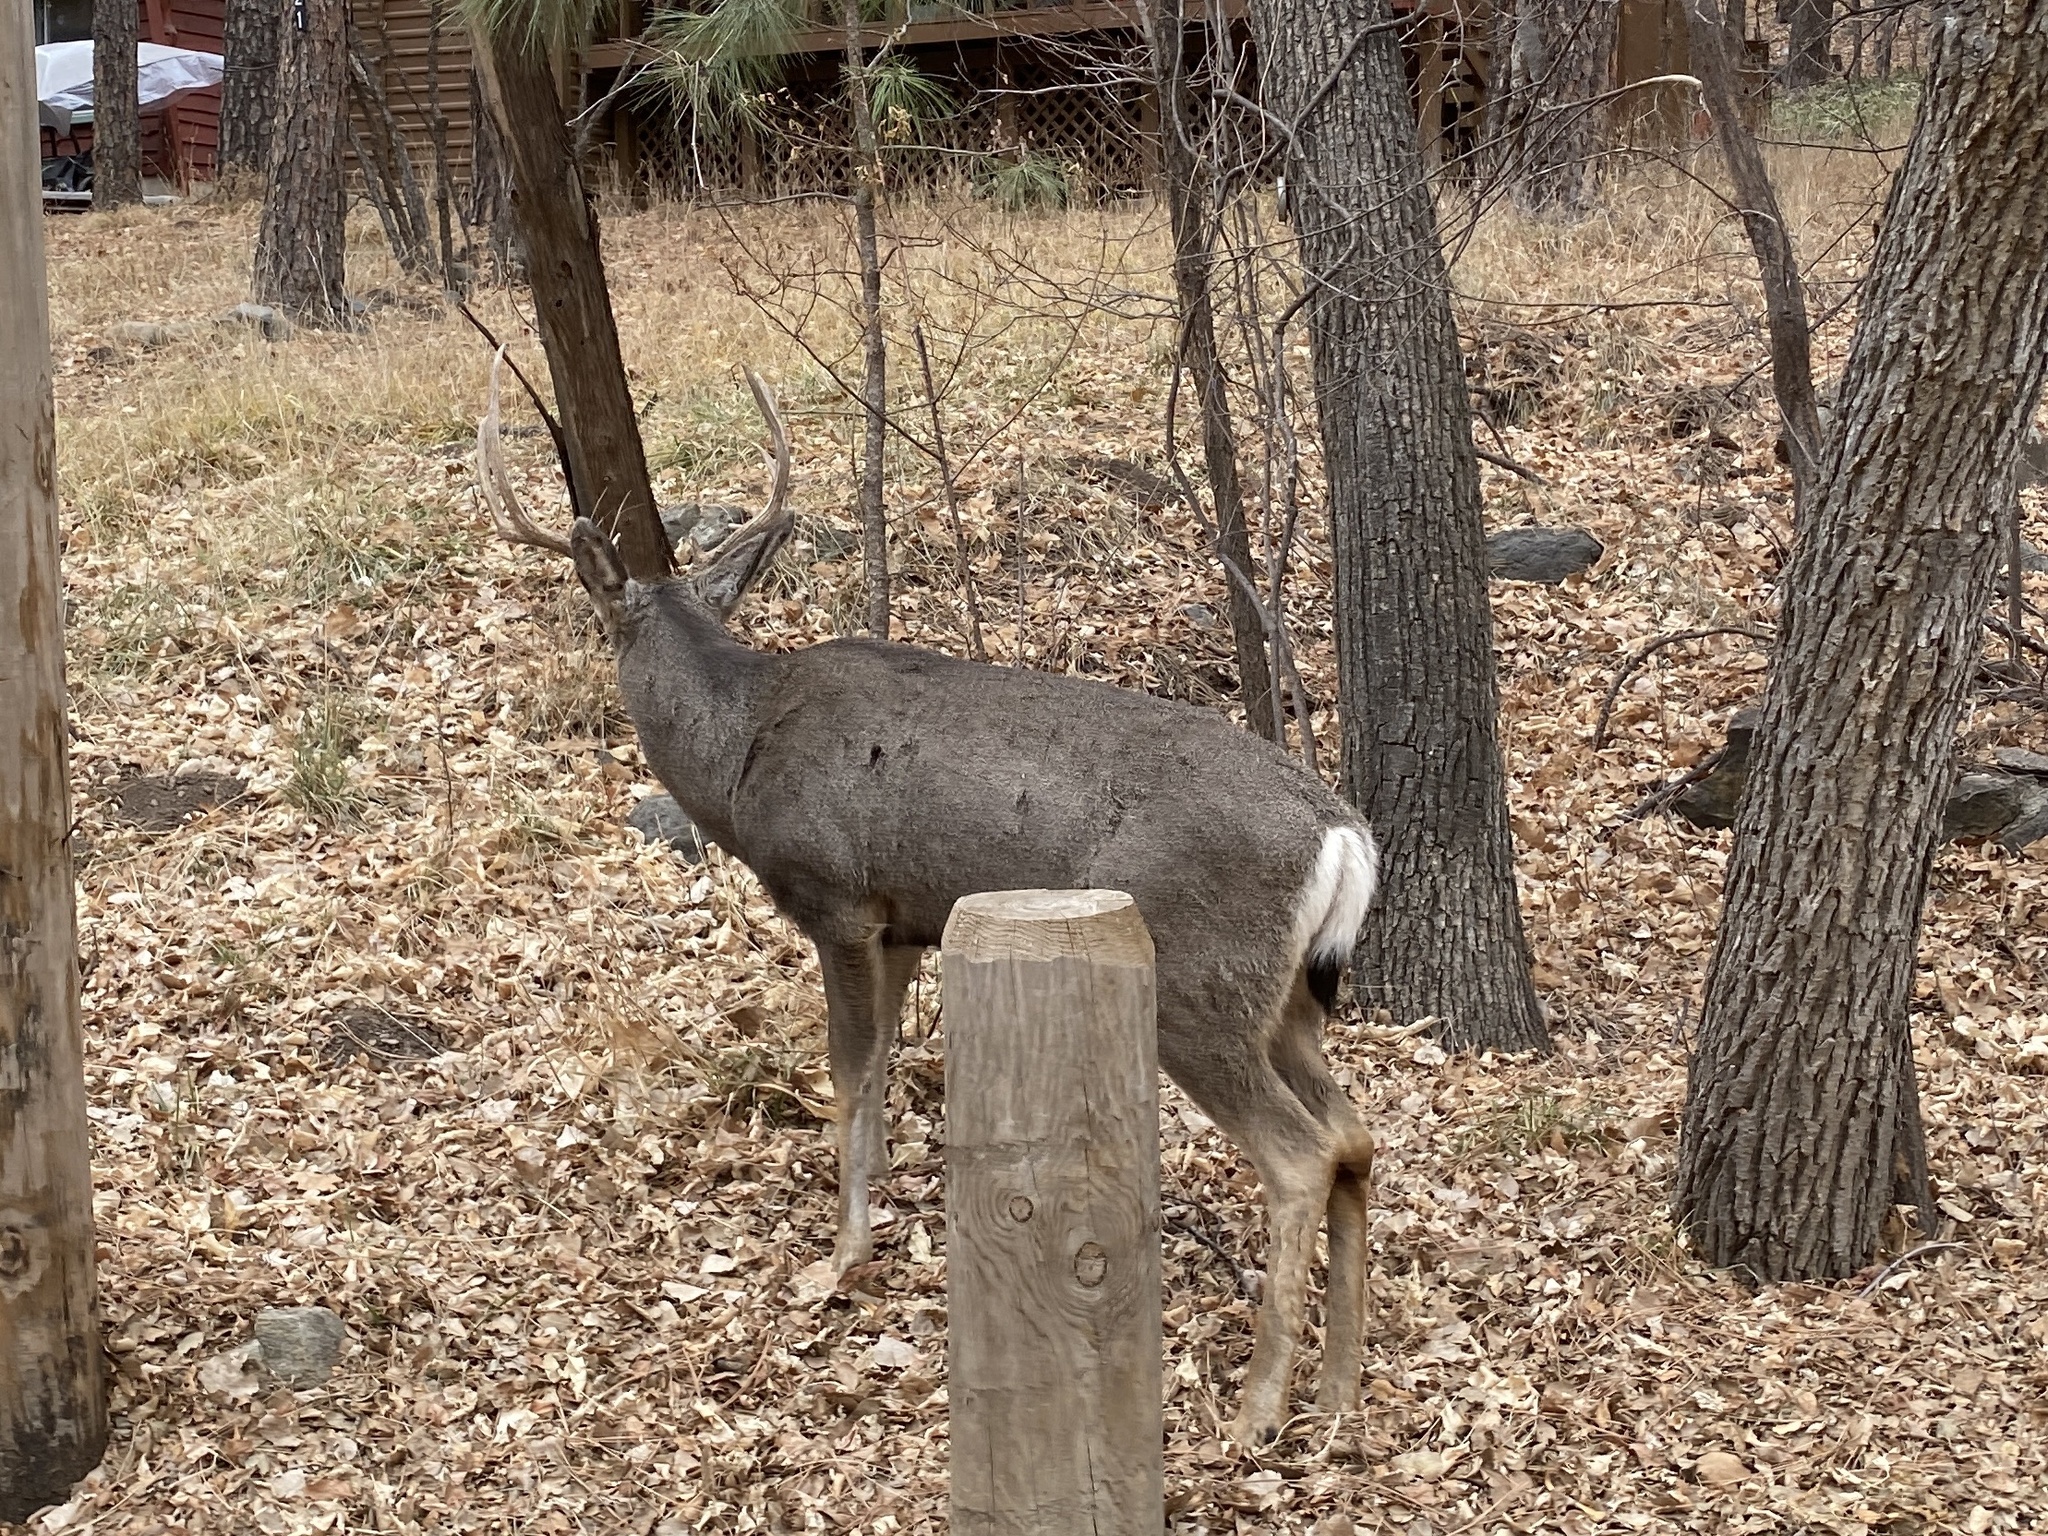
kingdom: Animalia
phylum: Chordata
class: Mammalia
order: Artiodactyla
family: Cervidae
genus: Odocoileus
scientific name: Odocoileus hemionus
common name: Mule deer
